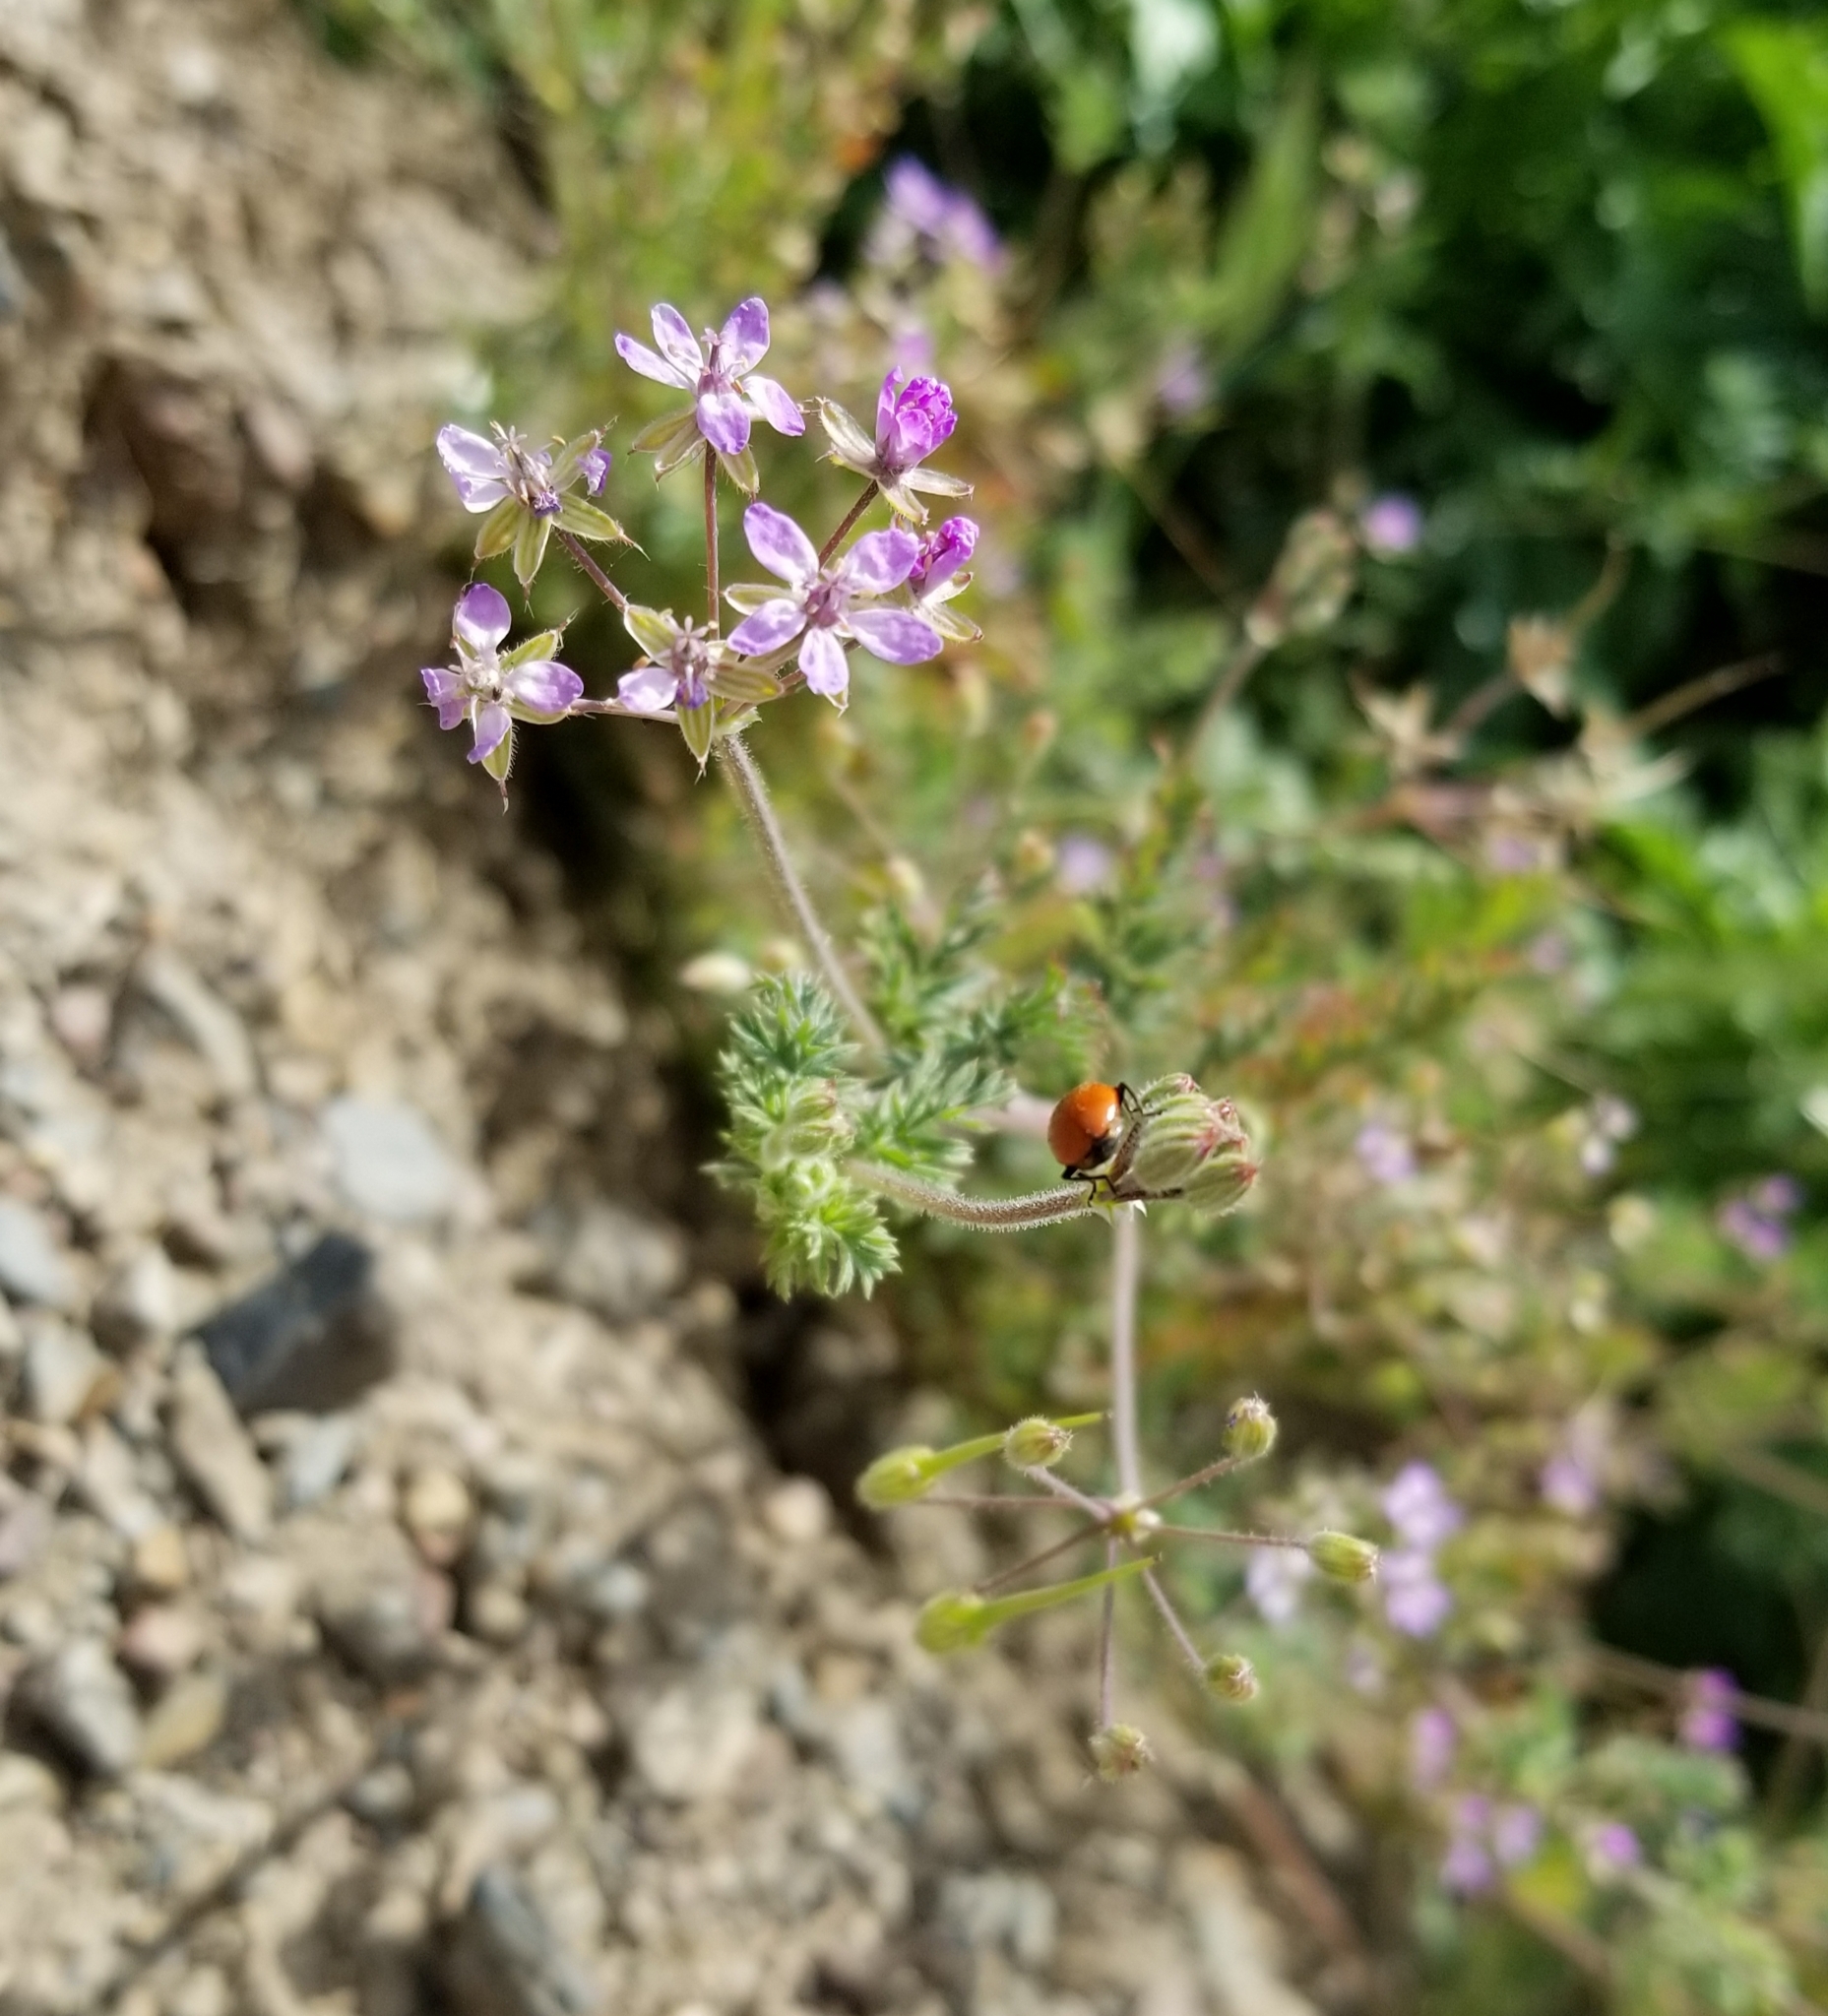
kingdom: Plantae
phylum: Tracheophyta
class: Magnoliopsida
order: Geraniales
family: Geraniaceae
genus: Erodium
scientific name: Erodium cicutarium
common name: Common stork's-bill
